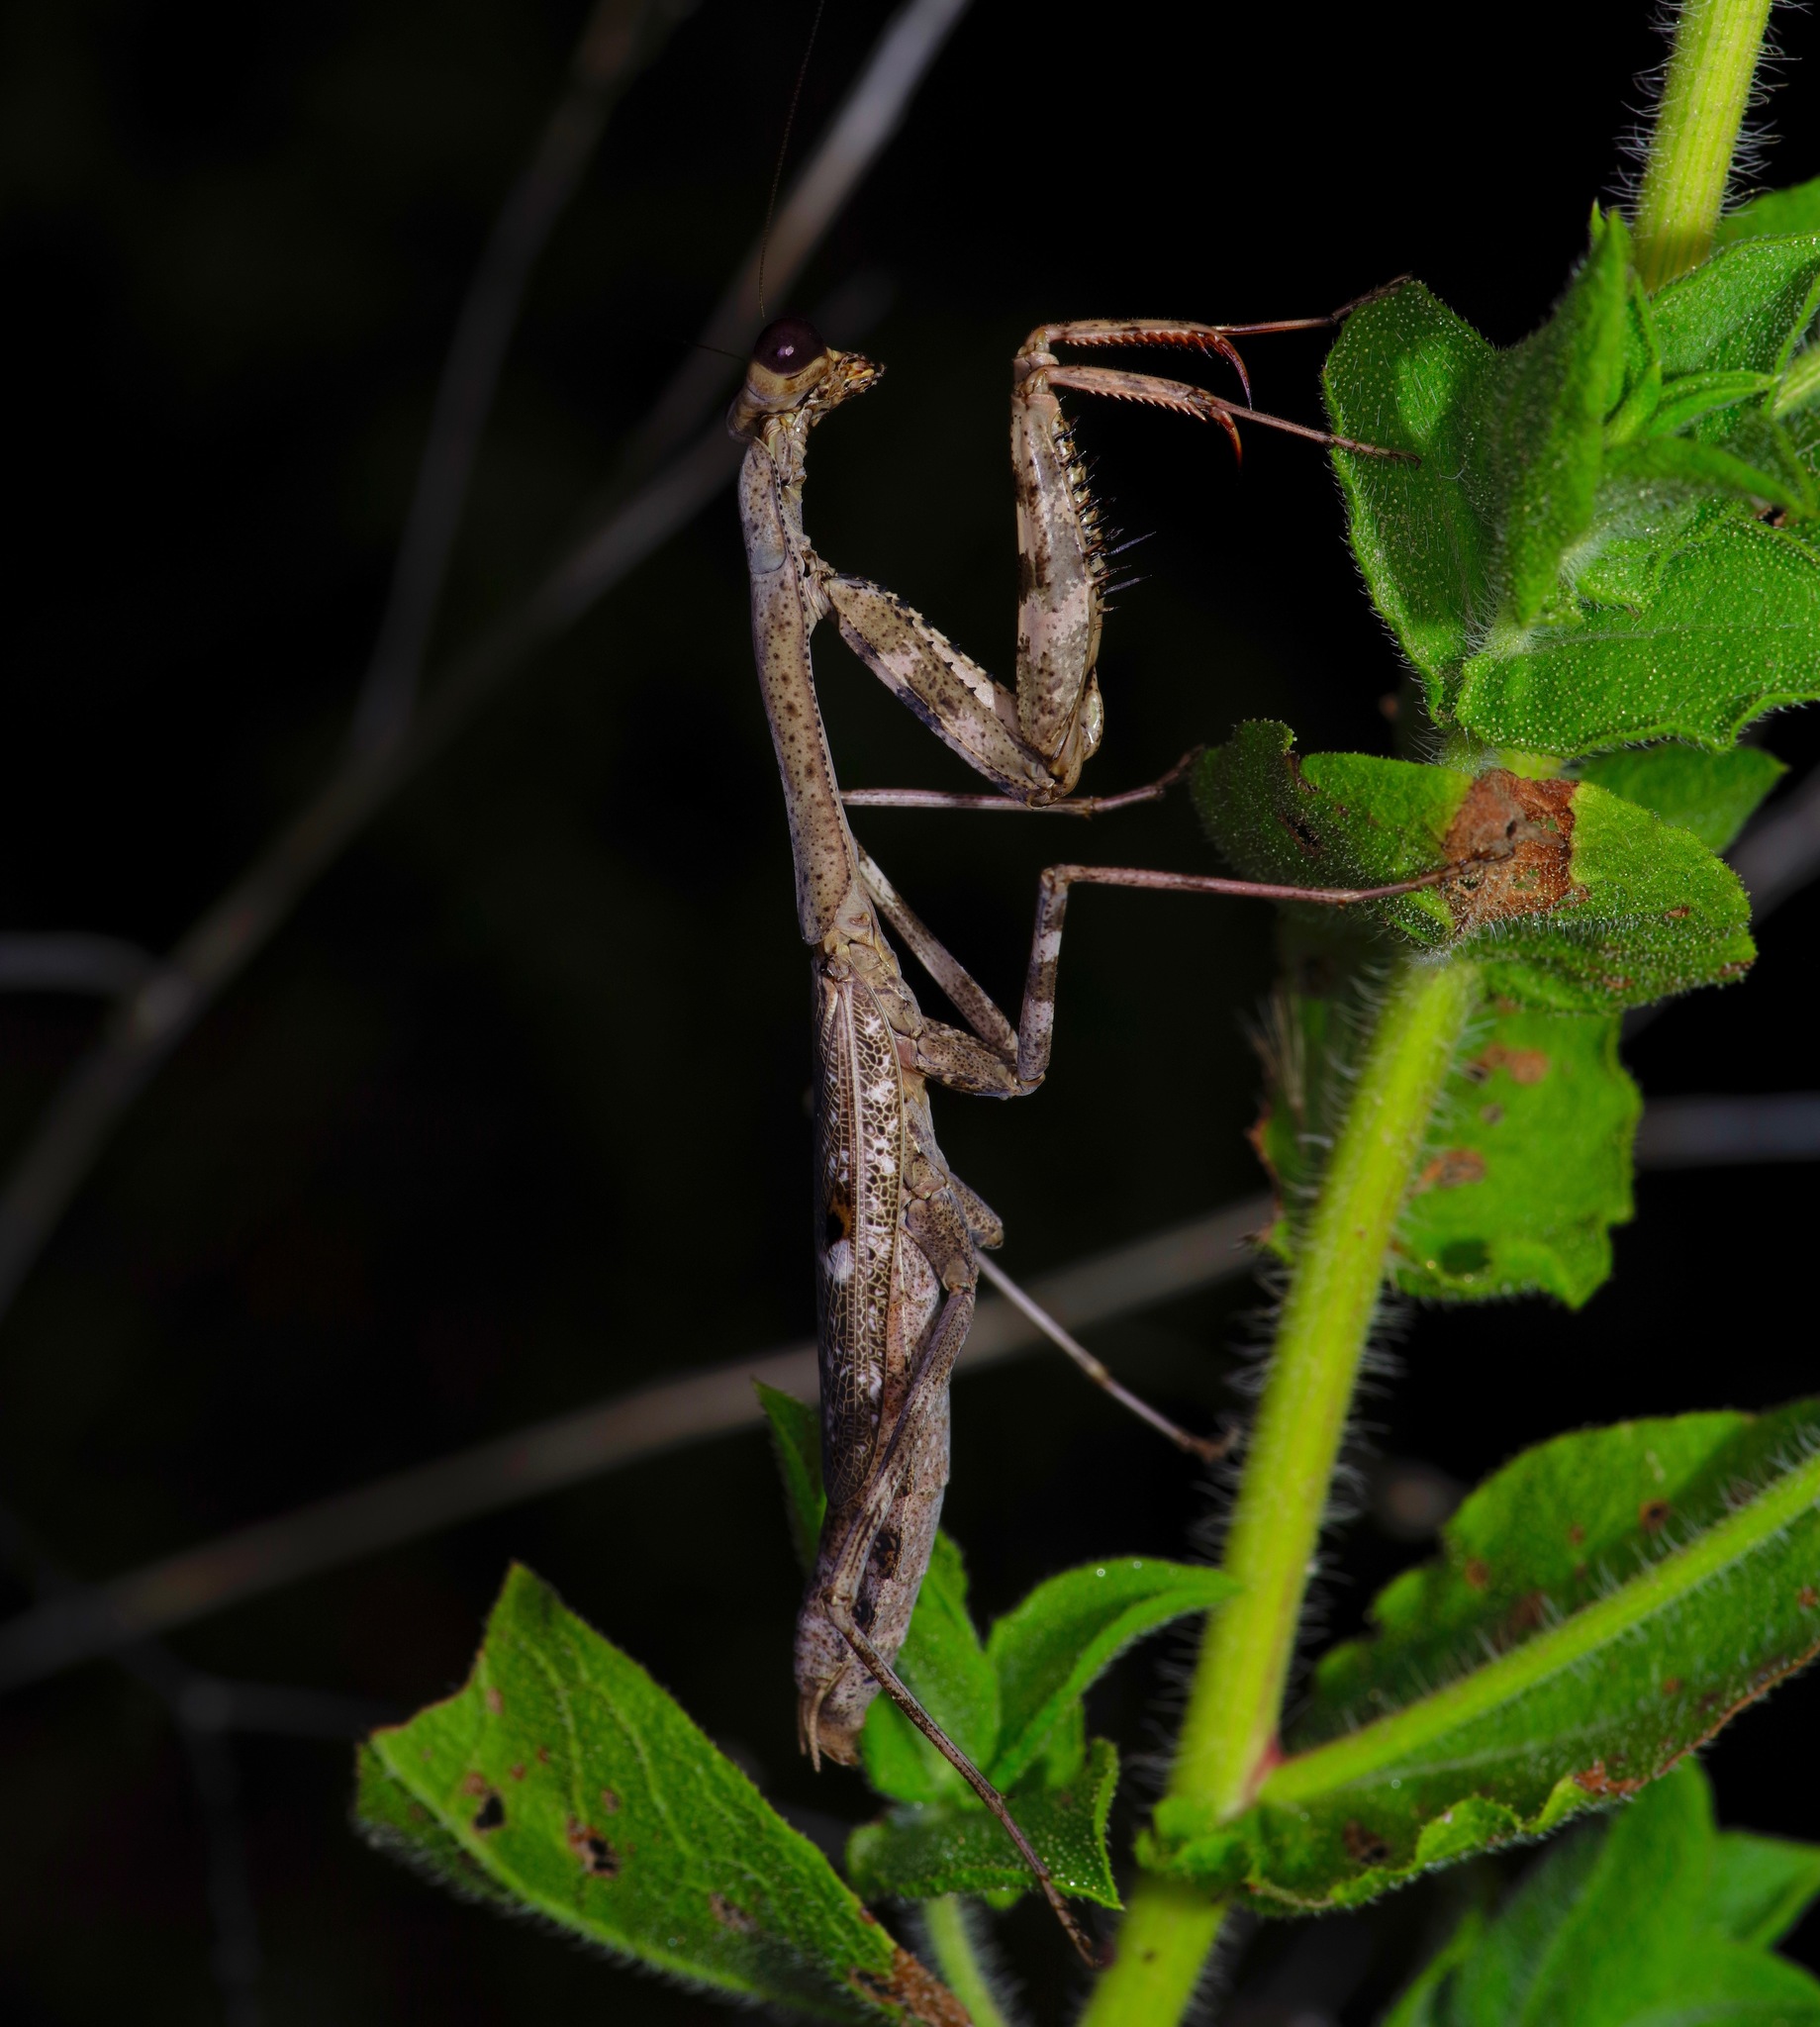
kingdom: Animalia
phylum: Arthropoda
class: Insecta
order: Mantodea
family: Mantidae
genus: Stagmomantis
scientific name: Stagmomantis carolina
